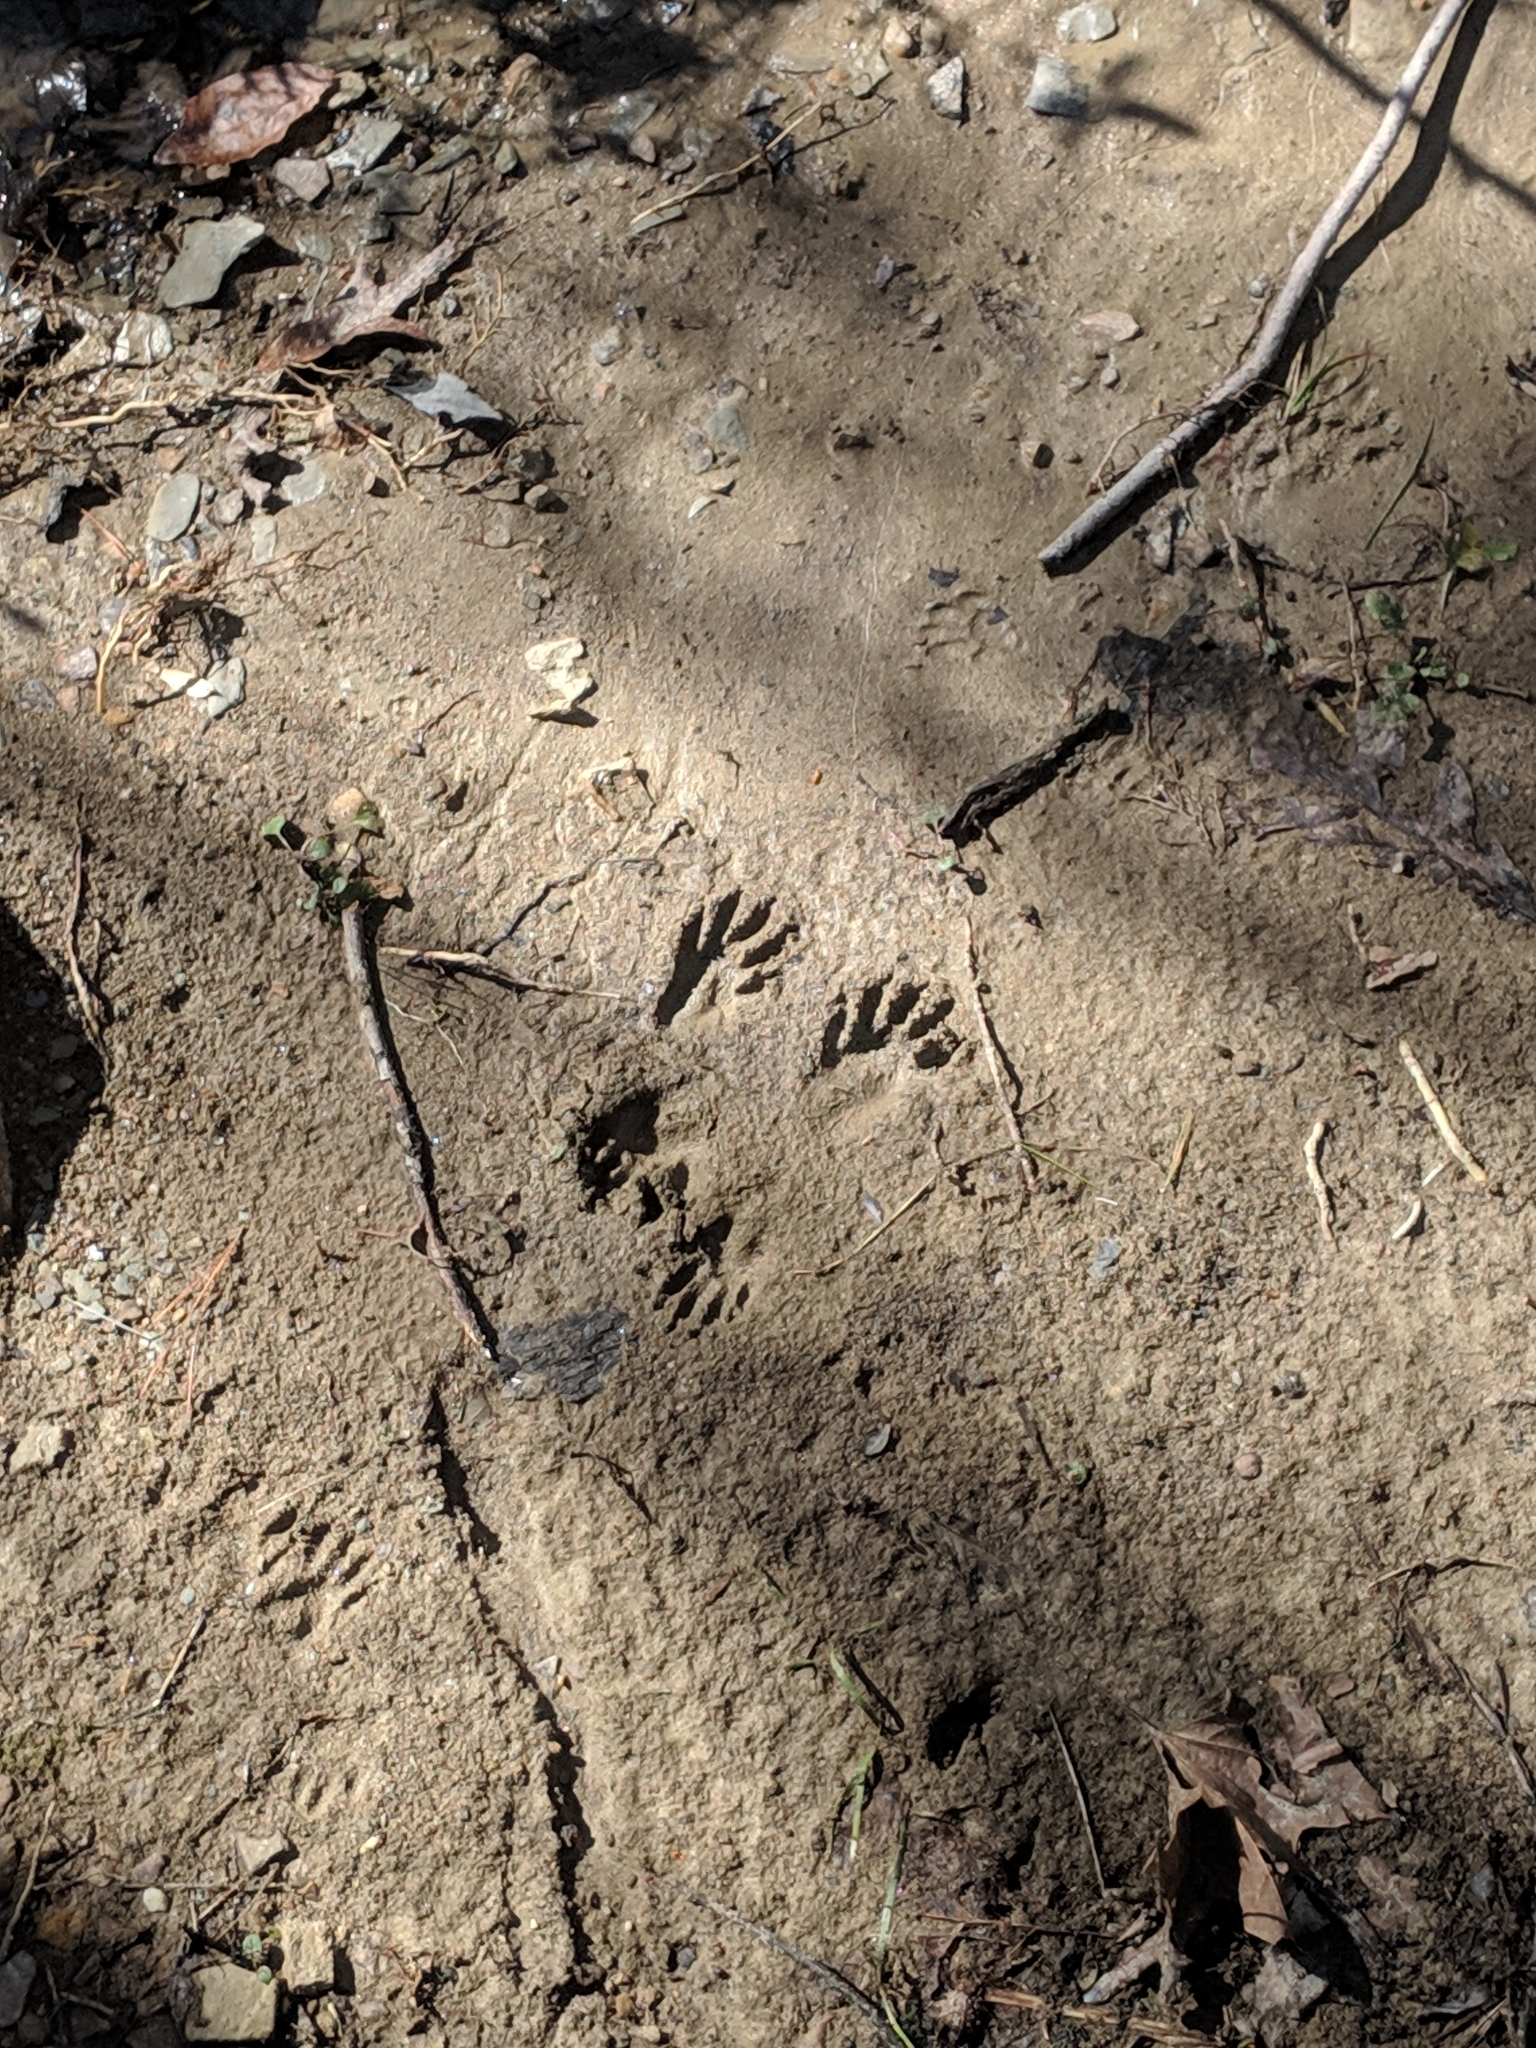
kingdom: Animalia
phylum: Chordata
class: Mammalia
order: Carnivora
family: Procyonidae
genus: Procyon
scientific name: Procyon lotor
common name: Raccoon
